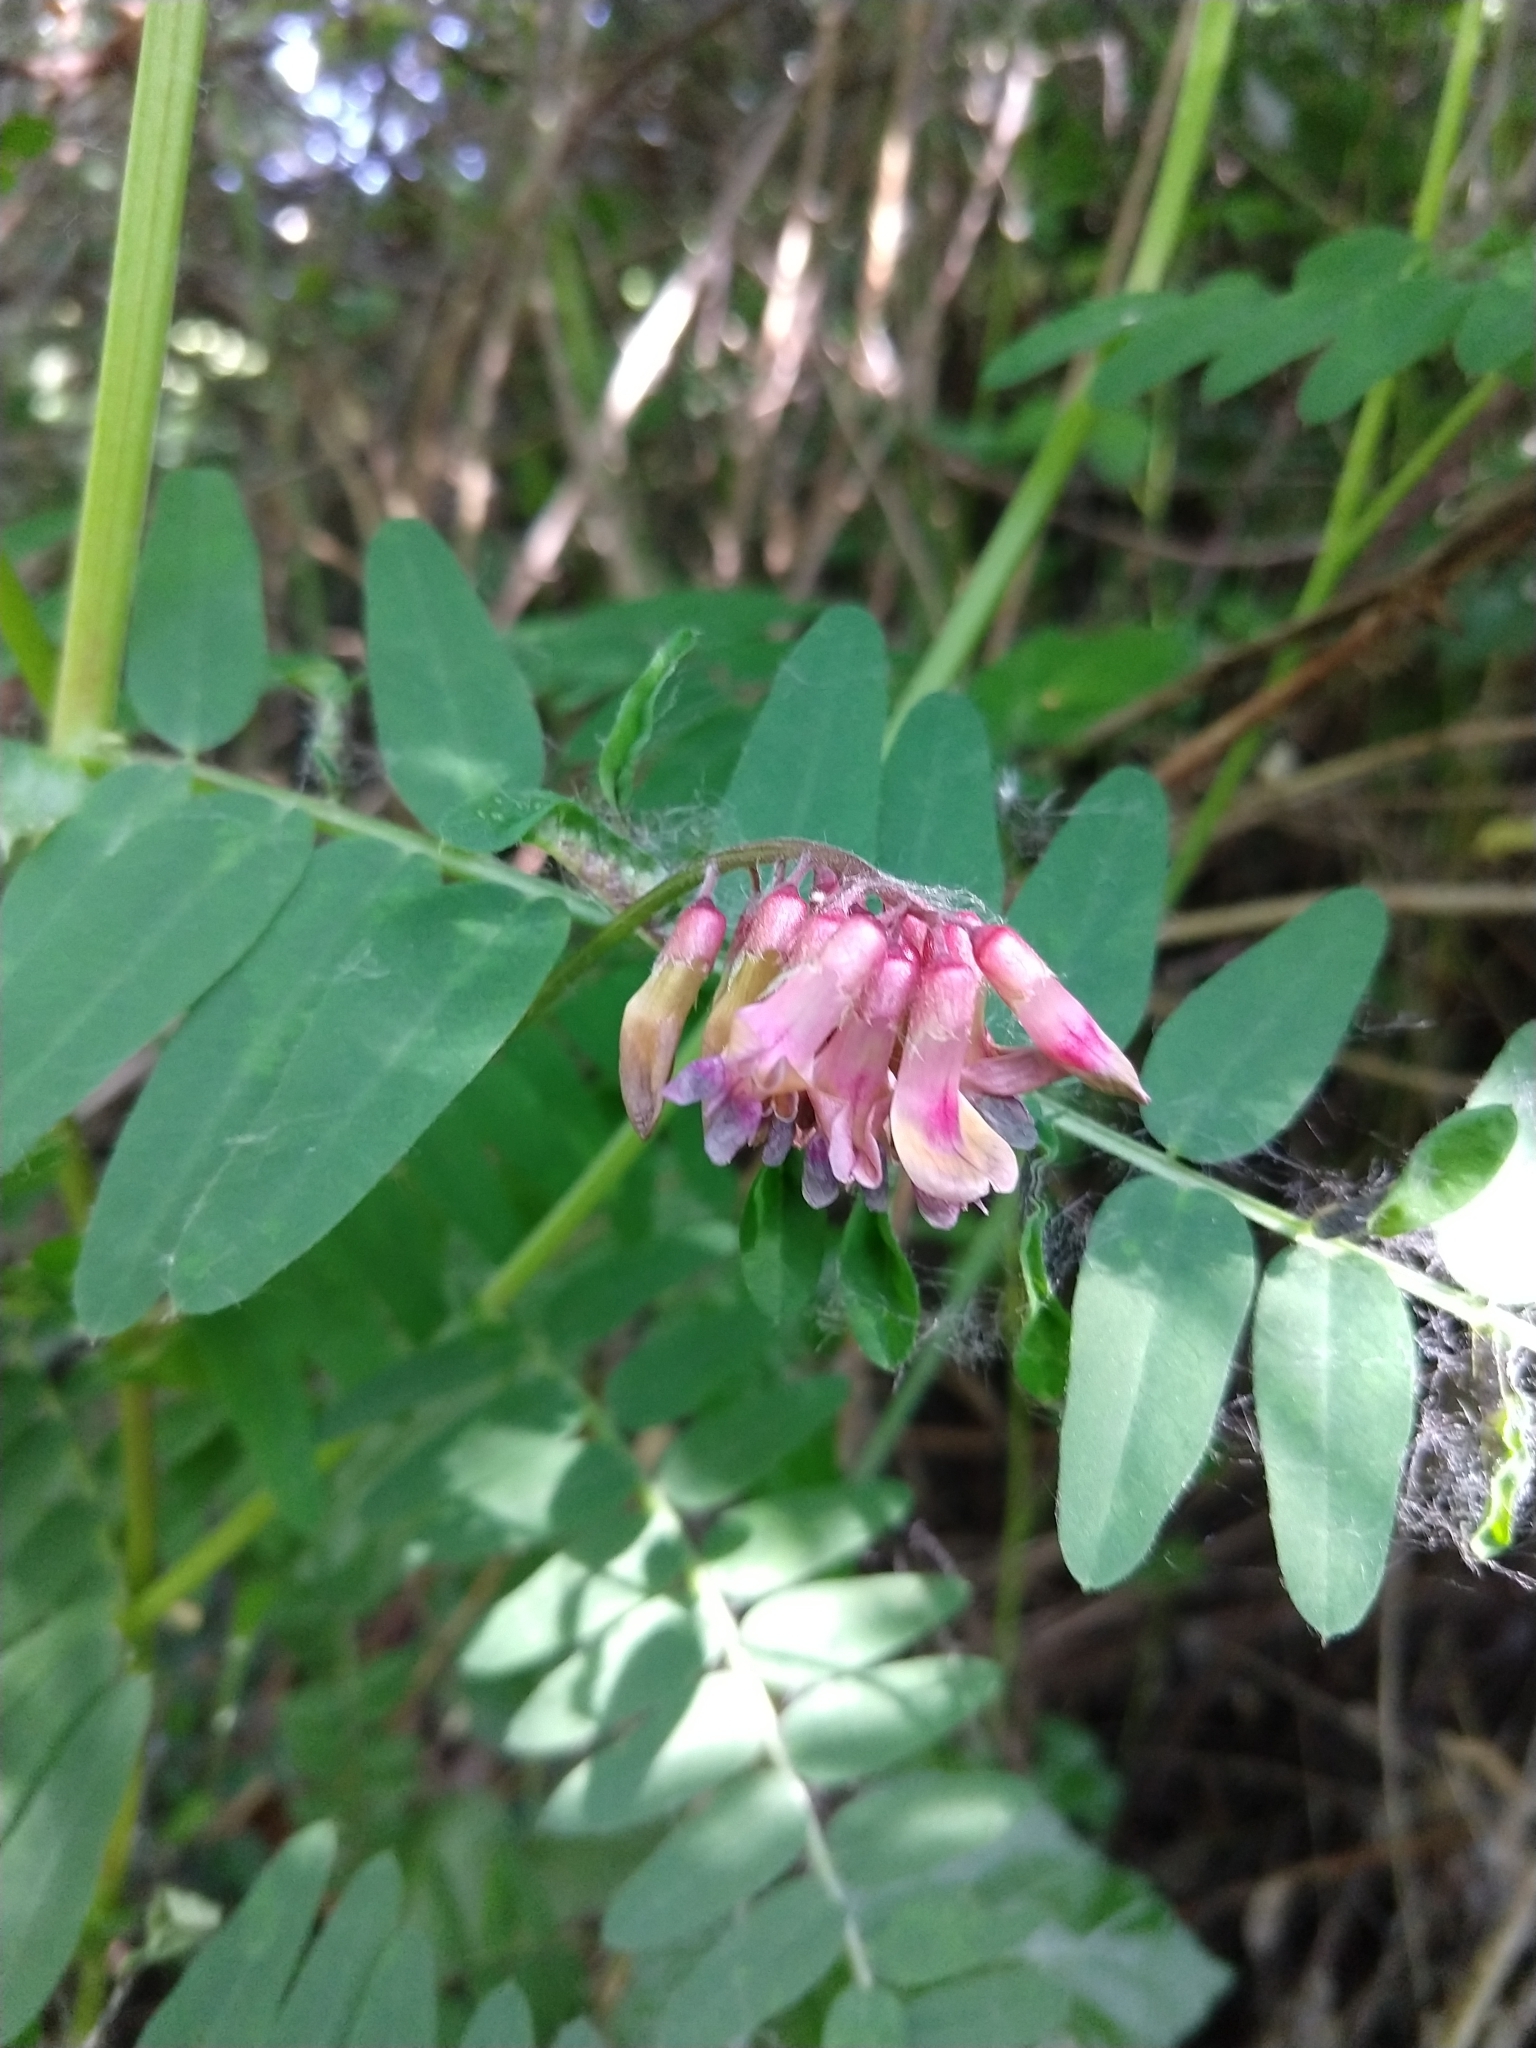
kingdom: Plantae
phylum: Tracheophyta
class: Magnoliopsida
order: Fabales
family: Fabaceae
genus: Vicia
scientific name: Vicia
